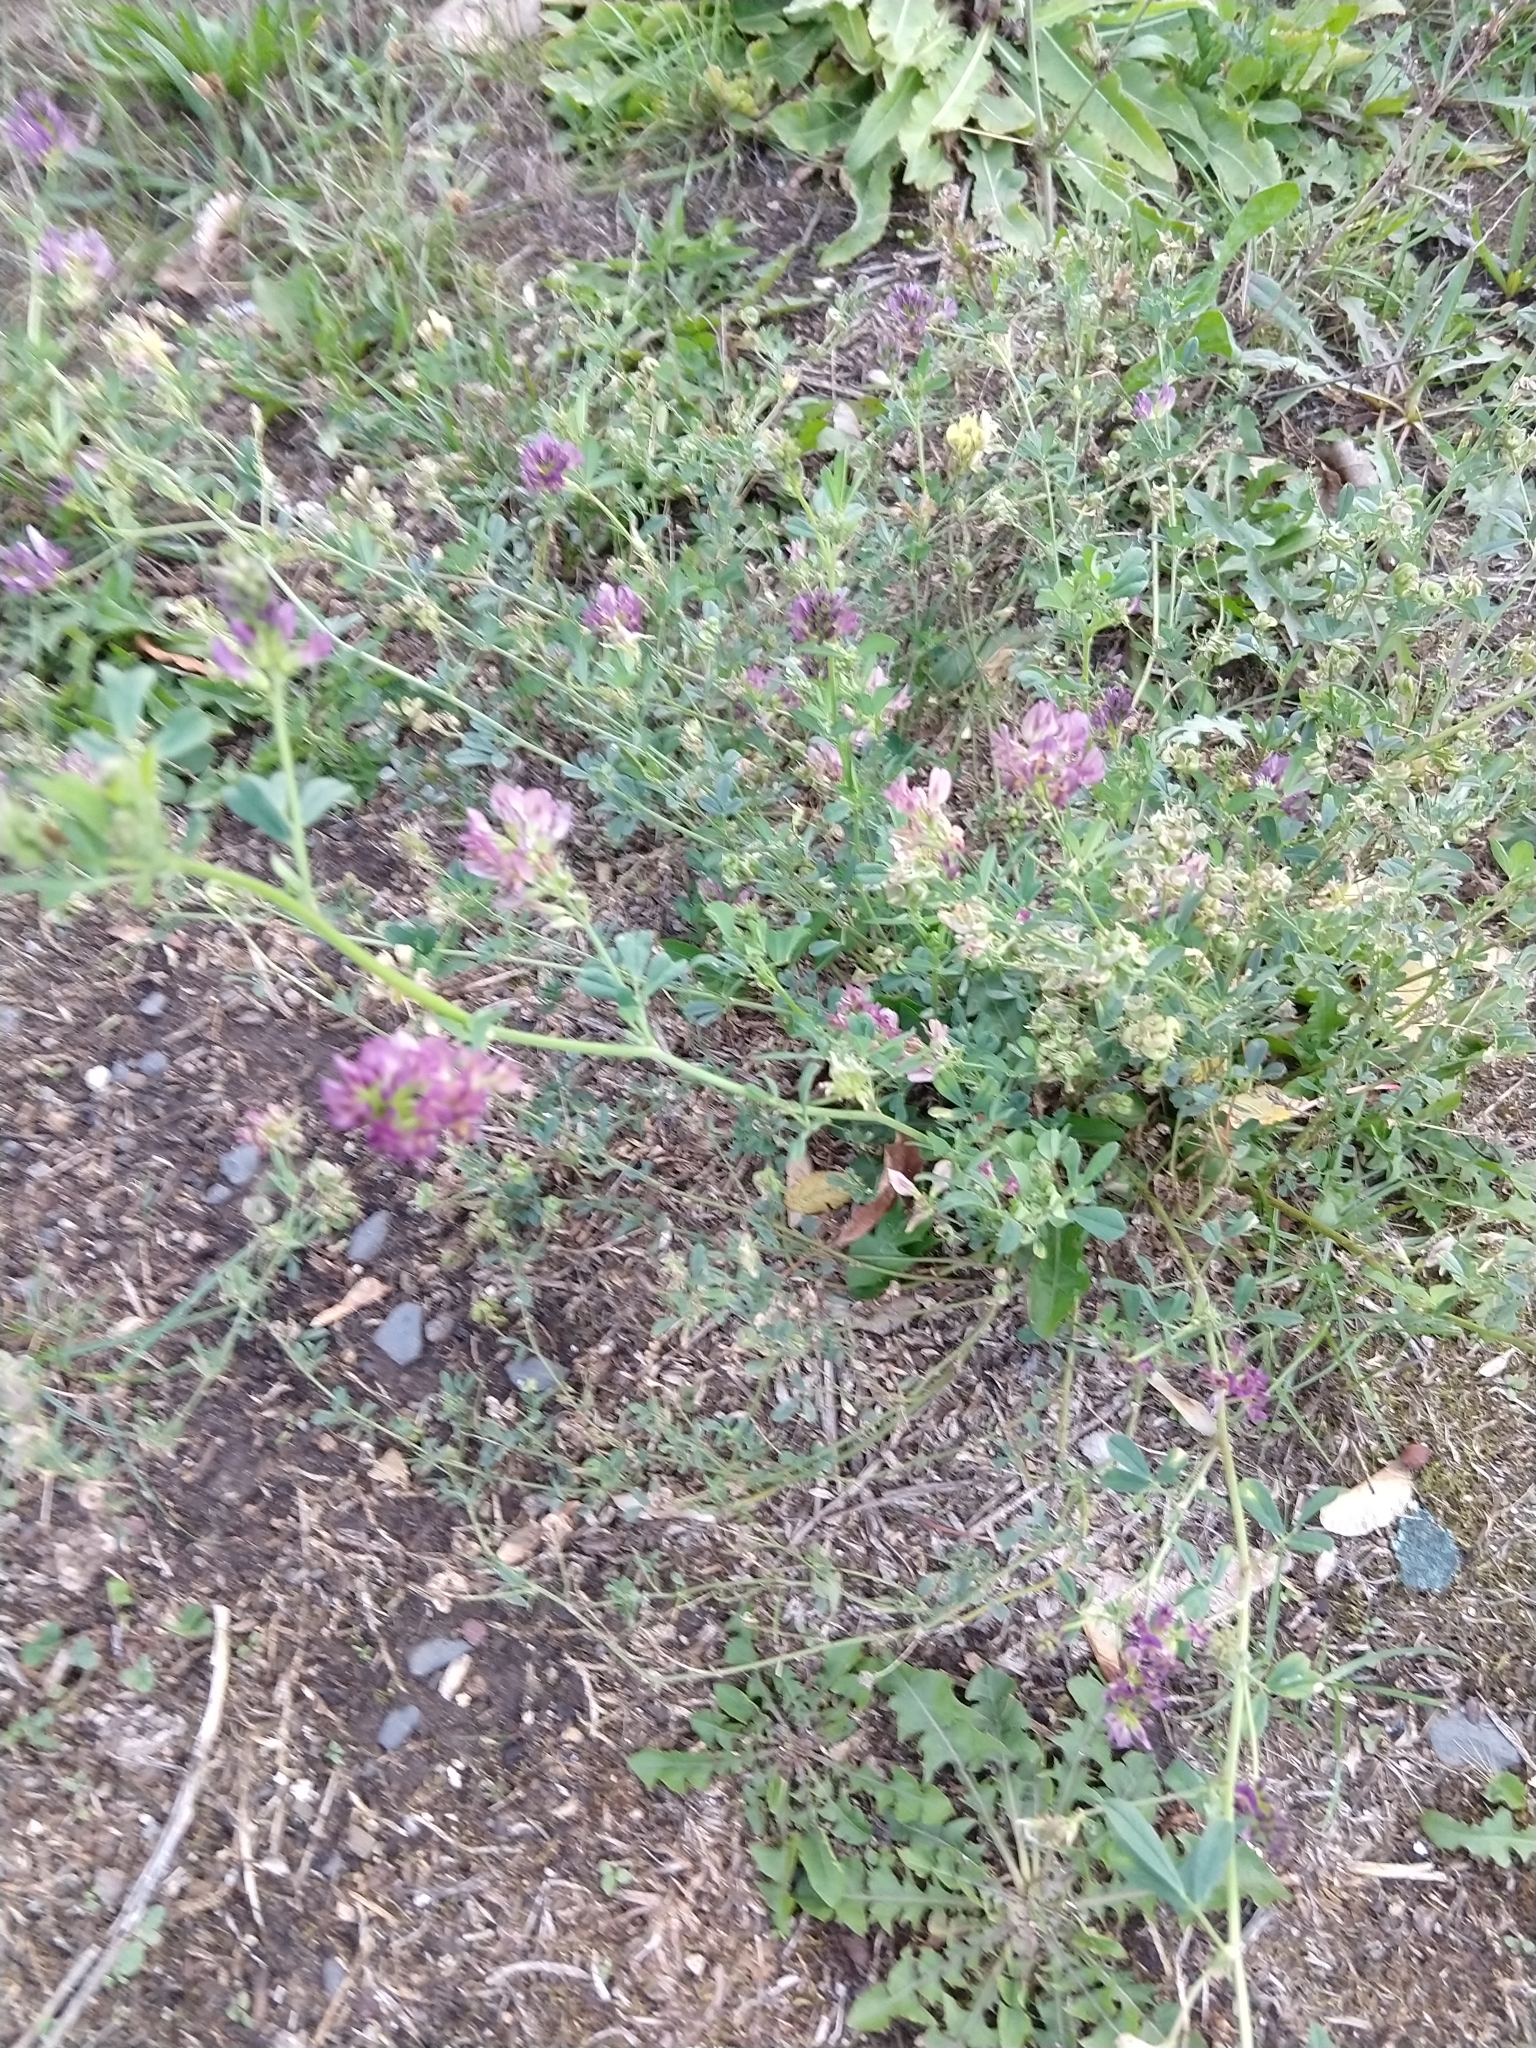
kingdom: Plantae
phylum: Tracheophyta
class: Magnoliopsida
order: Fabales
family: Fabaceae
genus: Medicago
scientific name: Medicago sativa
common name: Alfalfa
